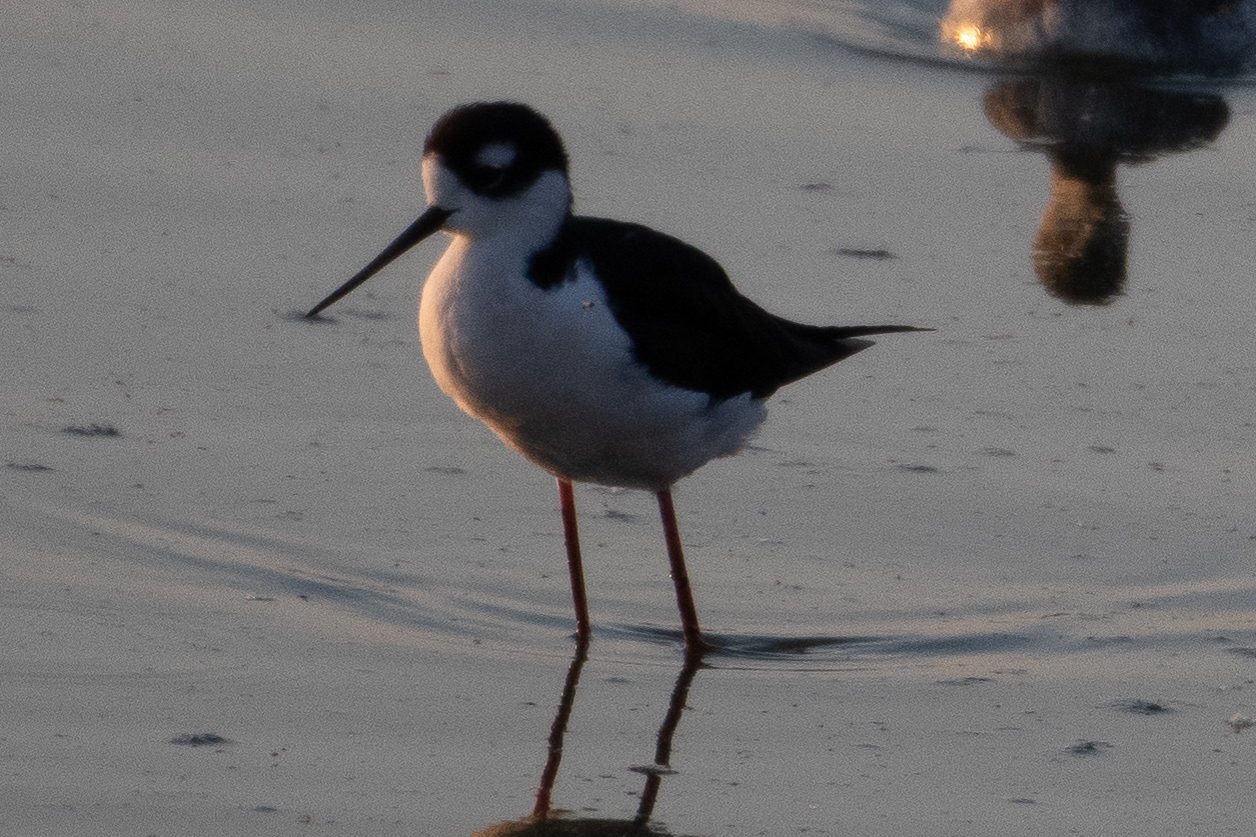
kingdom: Animalia
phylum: Chordata
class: Aves
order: Charadriiformes
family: Recurvirostridae
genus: Himantopus
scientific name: Himantopus mexicanus
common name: Black-necked stilt
